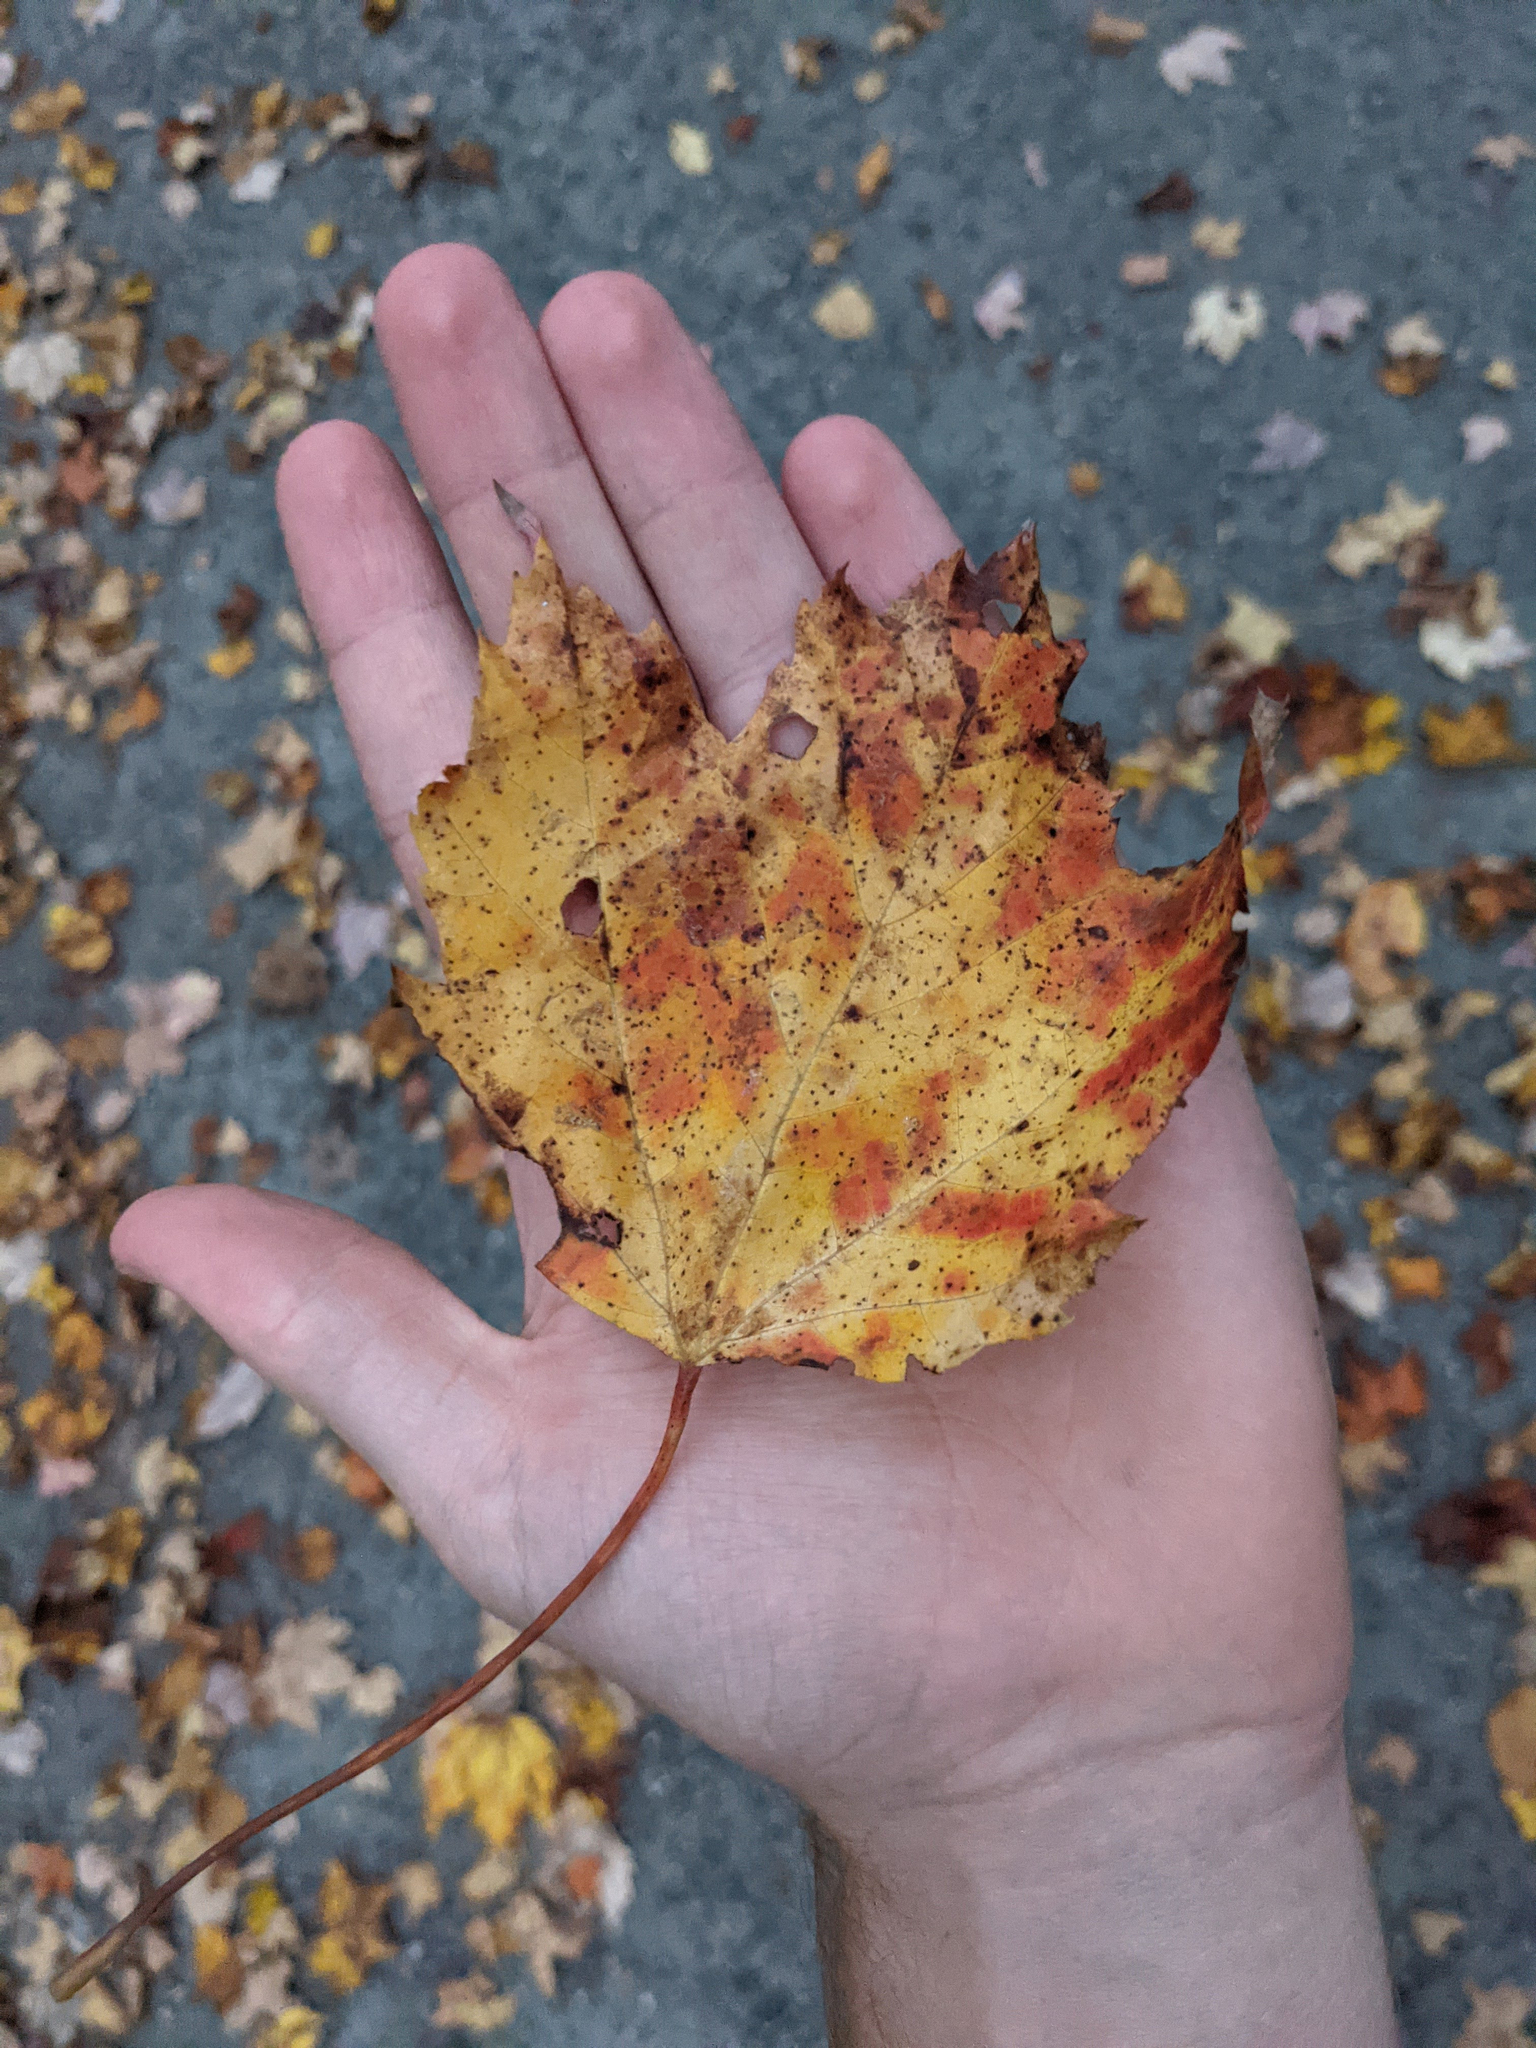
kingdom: Plantae
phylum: Tracheophyta
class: Magnoliopsida
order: Sapindales
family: Sapindaceae
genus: Acer
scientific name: Acer rubrum
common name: Red maple
